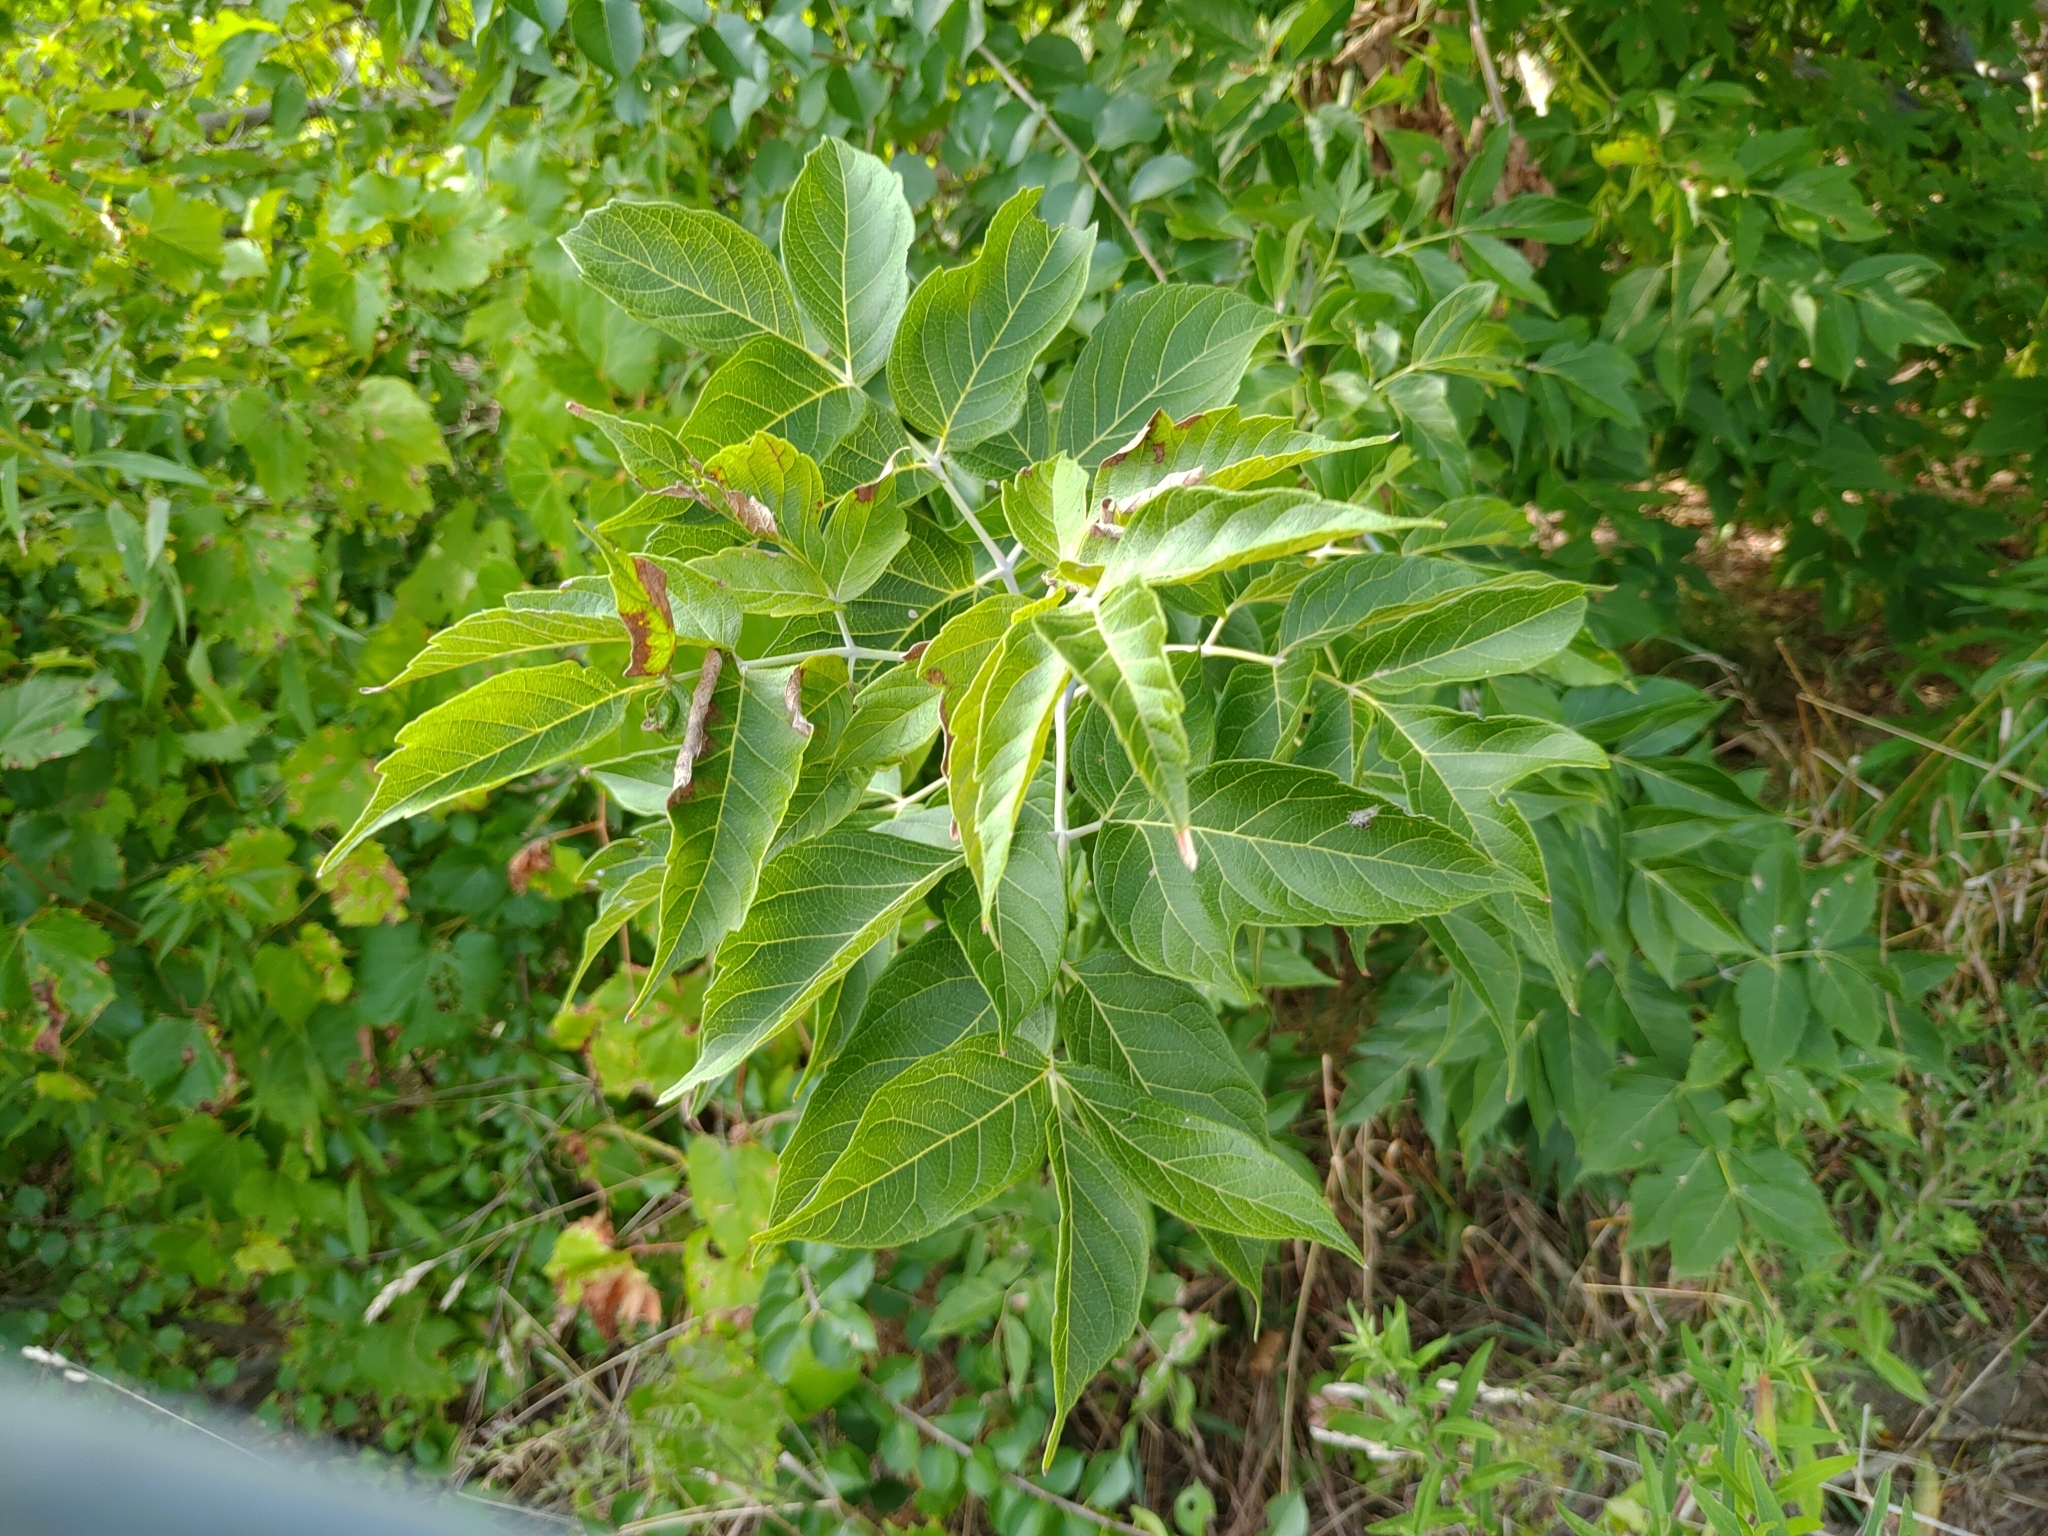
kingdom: Plantae
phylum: Tracheophyta
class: Magnoliopsida
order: Sapindales
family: Sapindaceae
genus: Acer
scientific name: Acer negundo
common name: Ashleaf maple
